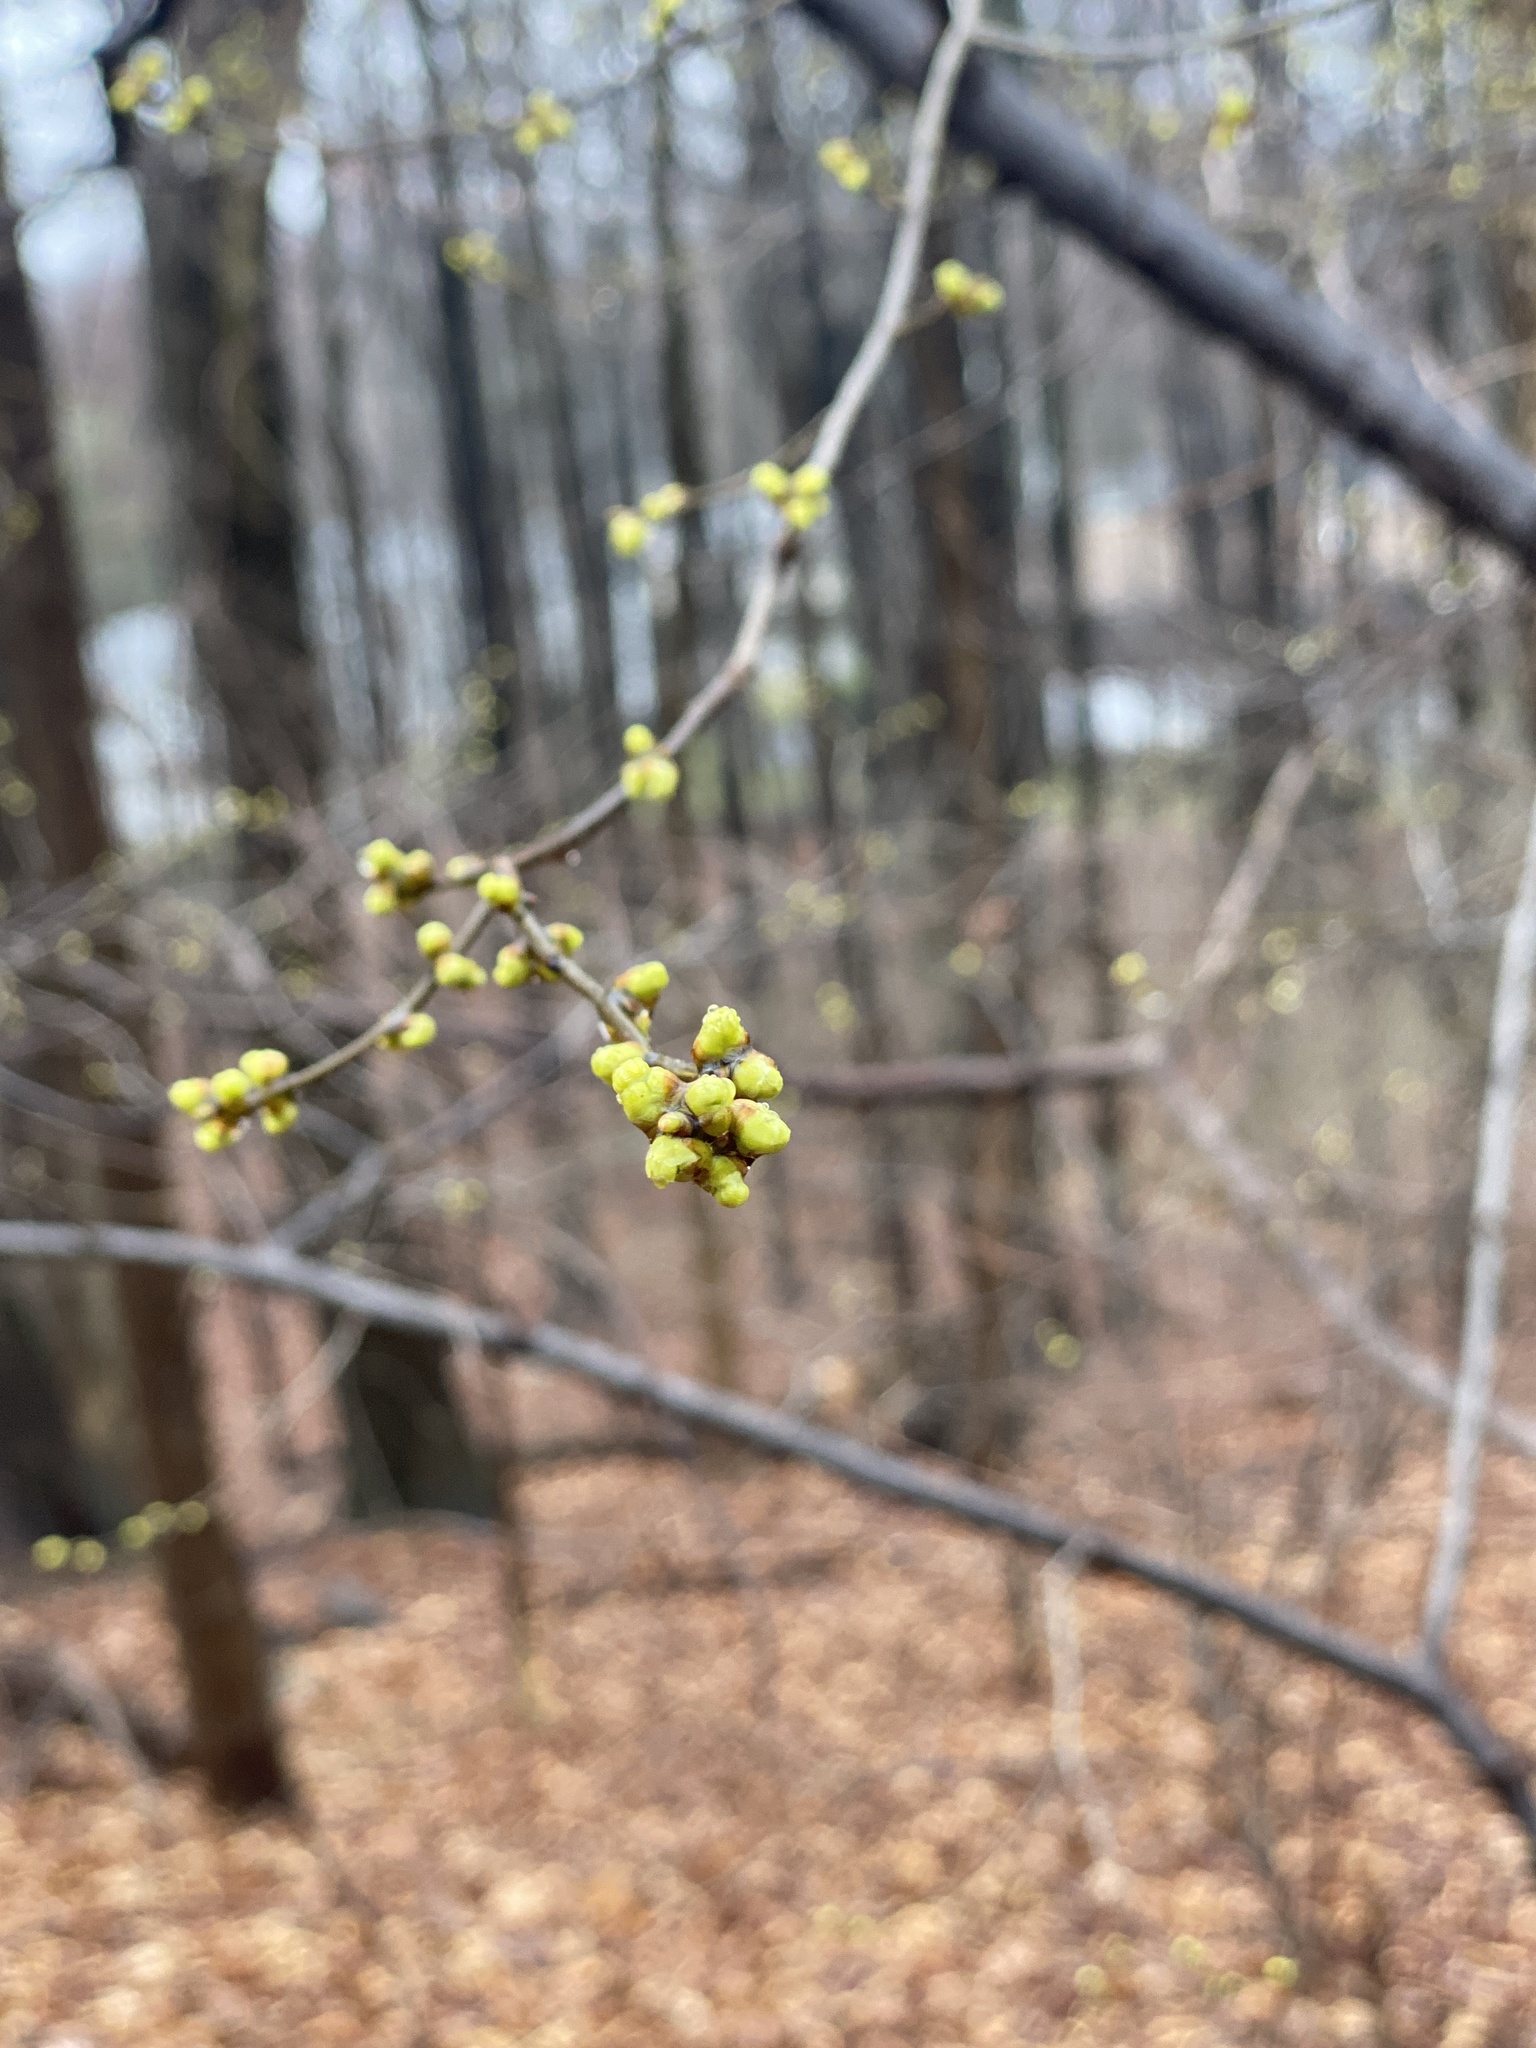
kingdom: Plantae
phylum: Tracheophyta
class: Magnoliopsida
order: Laurales
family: Lauraceae
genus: Lindera
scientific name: Lindera benzoin
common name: Spicebush
